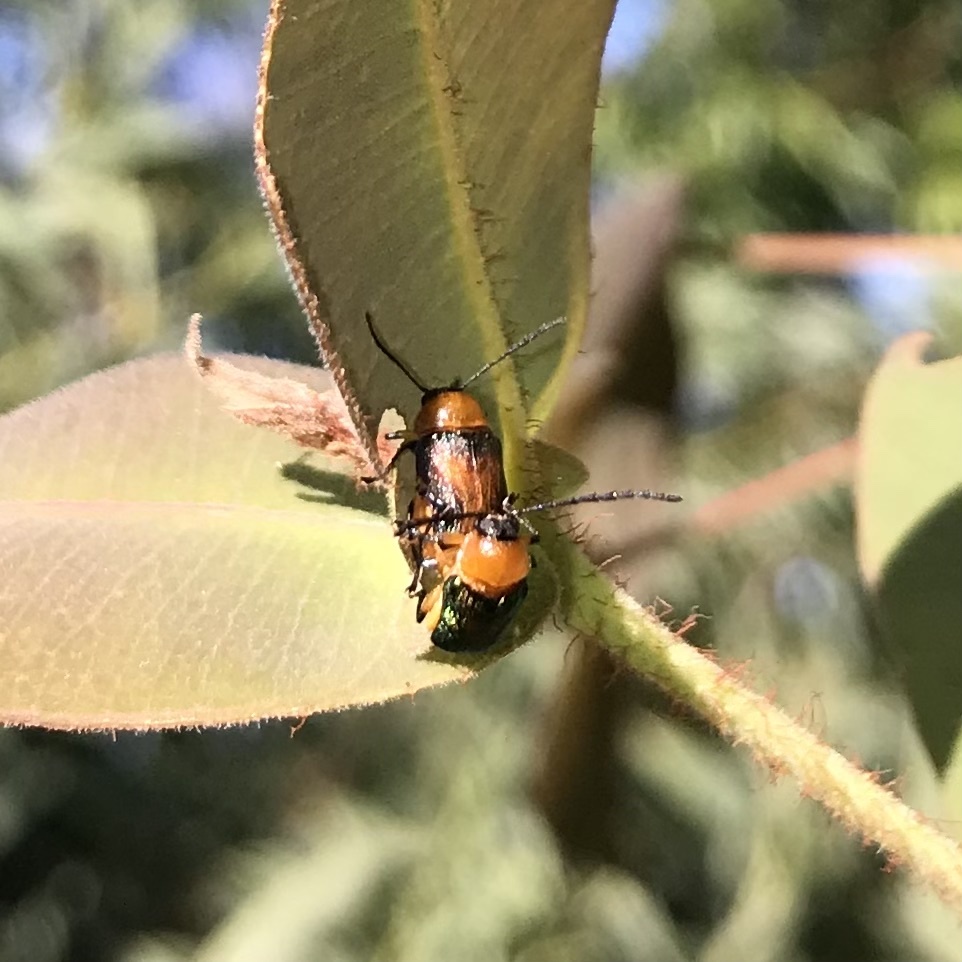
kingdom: Animalia
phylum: Arthropoda
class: Insecta
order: Coleoptera
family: Chrysomelidae
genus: Aporocera
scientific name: Aporocera iridipennis
